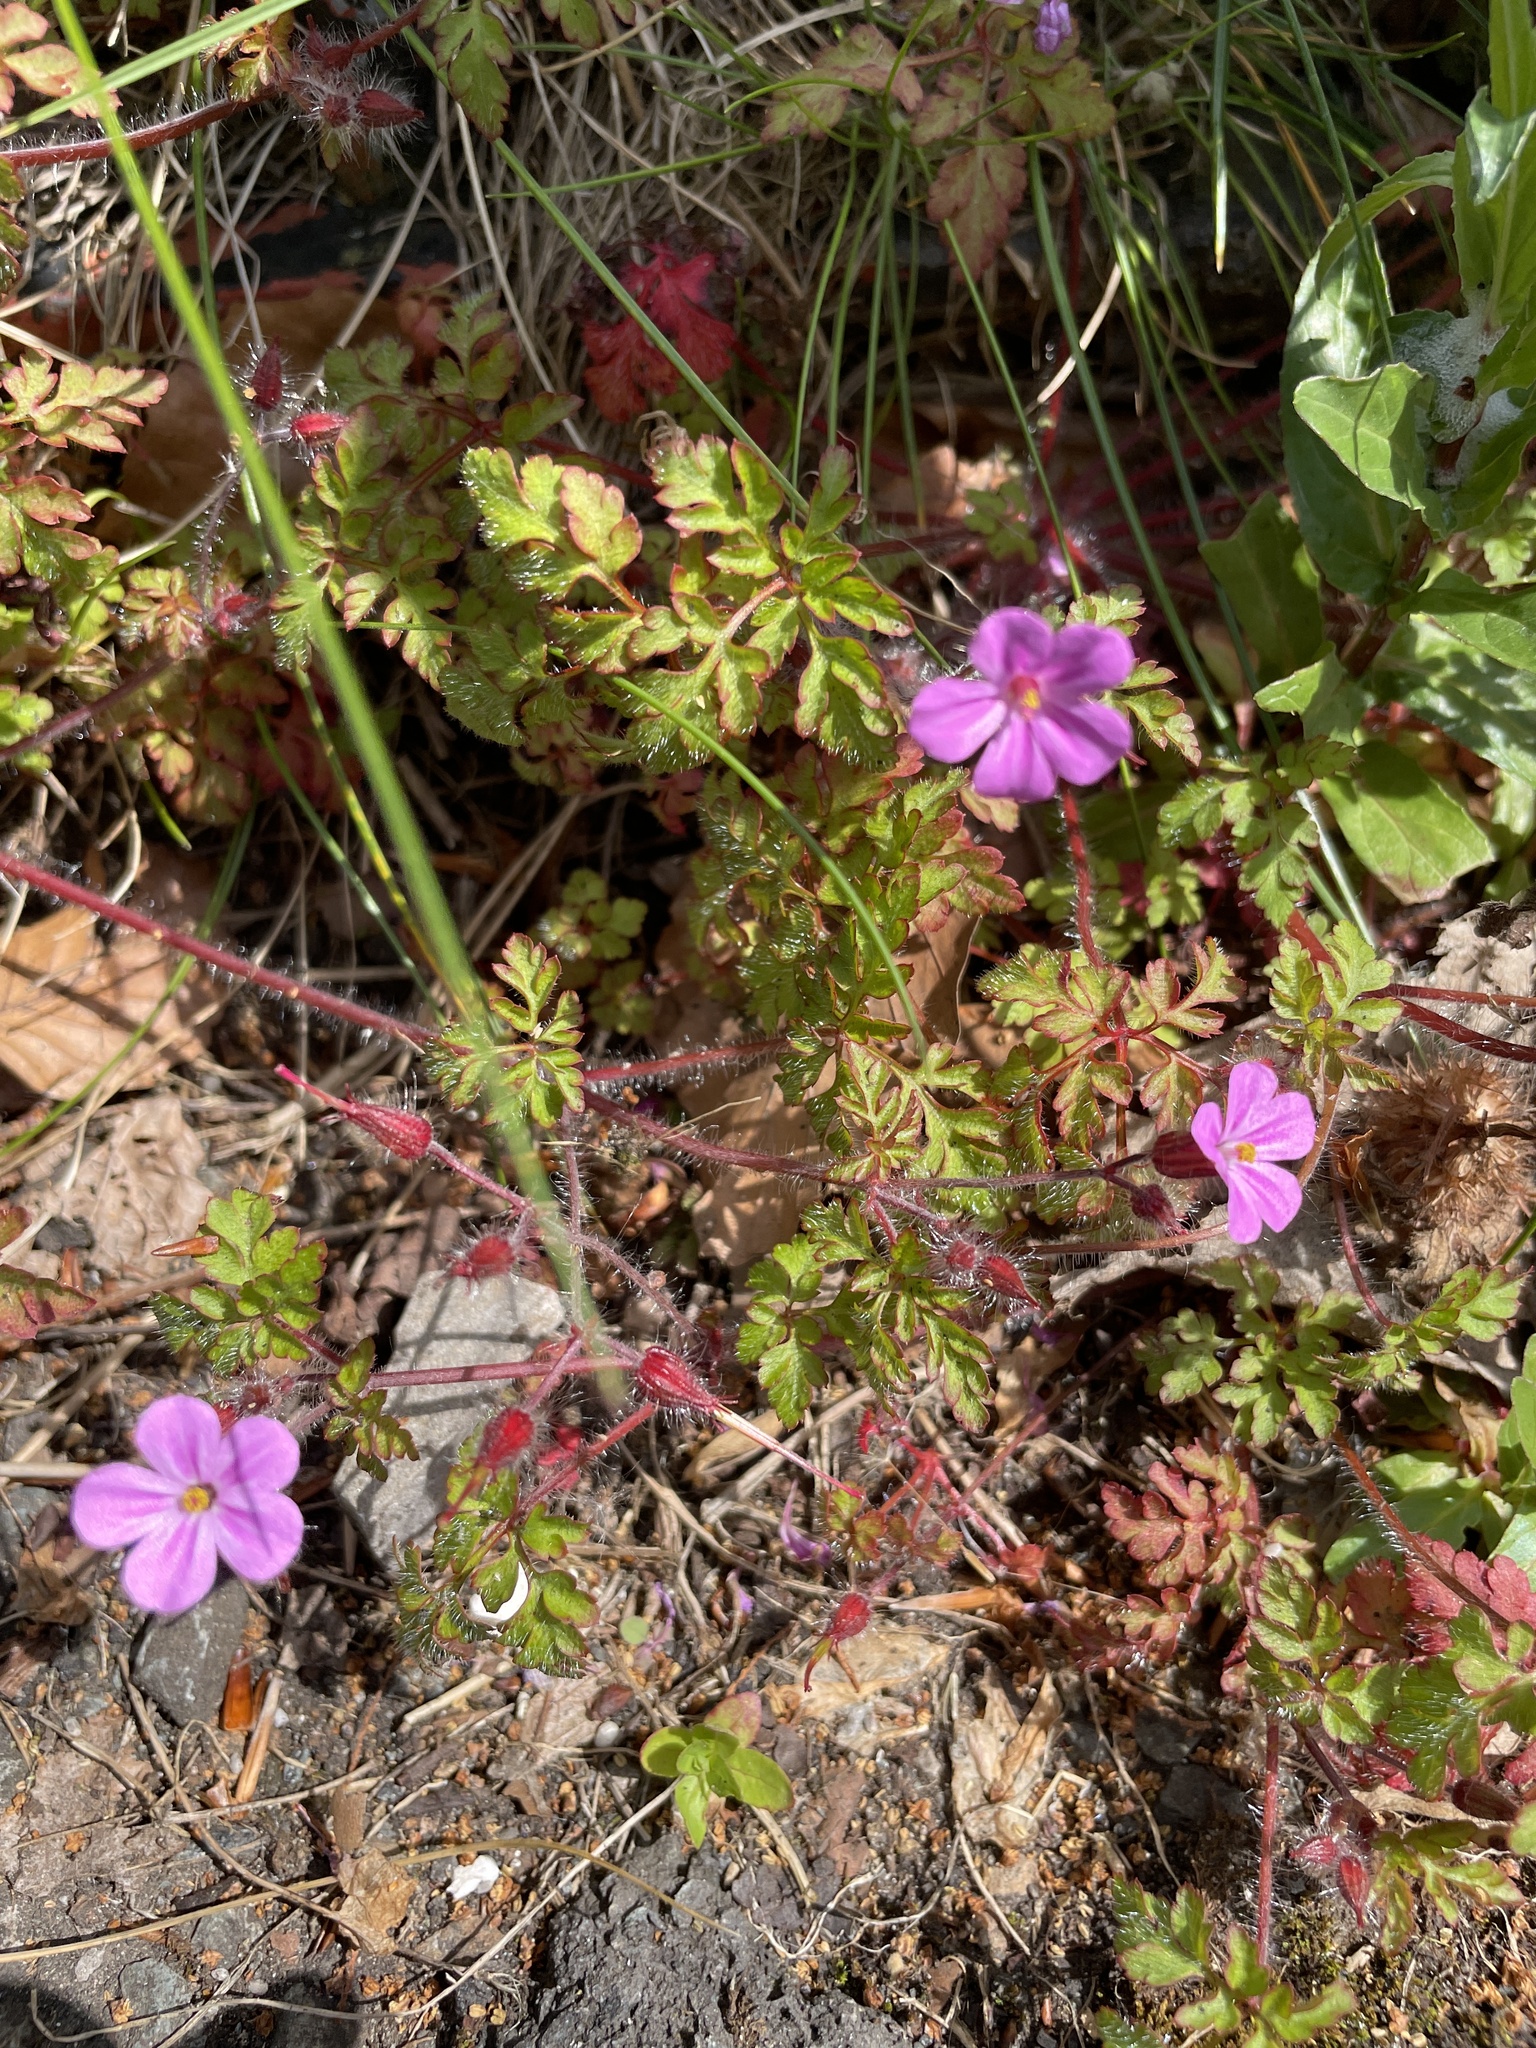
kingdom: Plantae
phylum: Tracheophyta
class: Magnoliopsida
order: Geraniales
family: Geraniaceae
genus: Geranium
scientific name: Geranium robertianum
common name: Herb-robert
